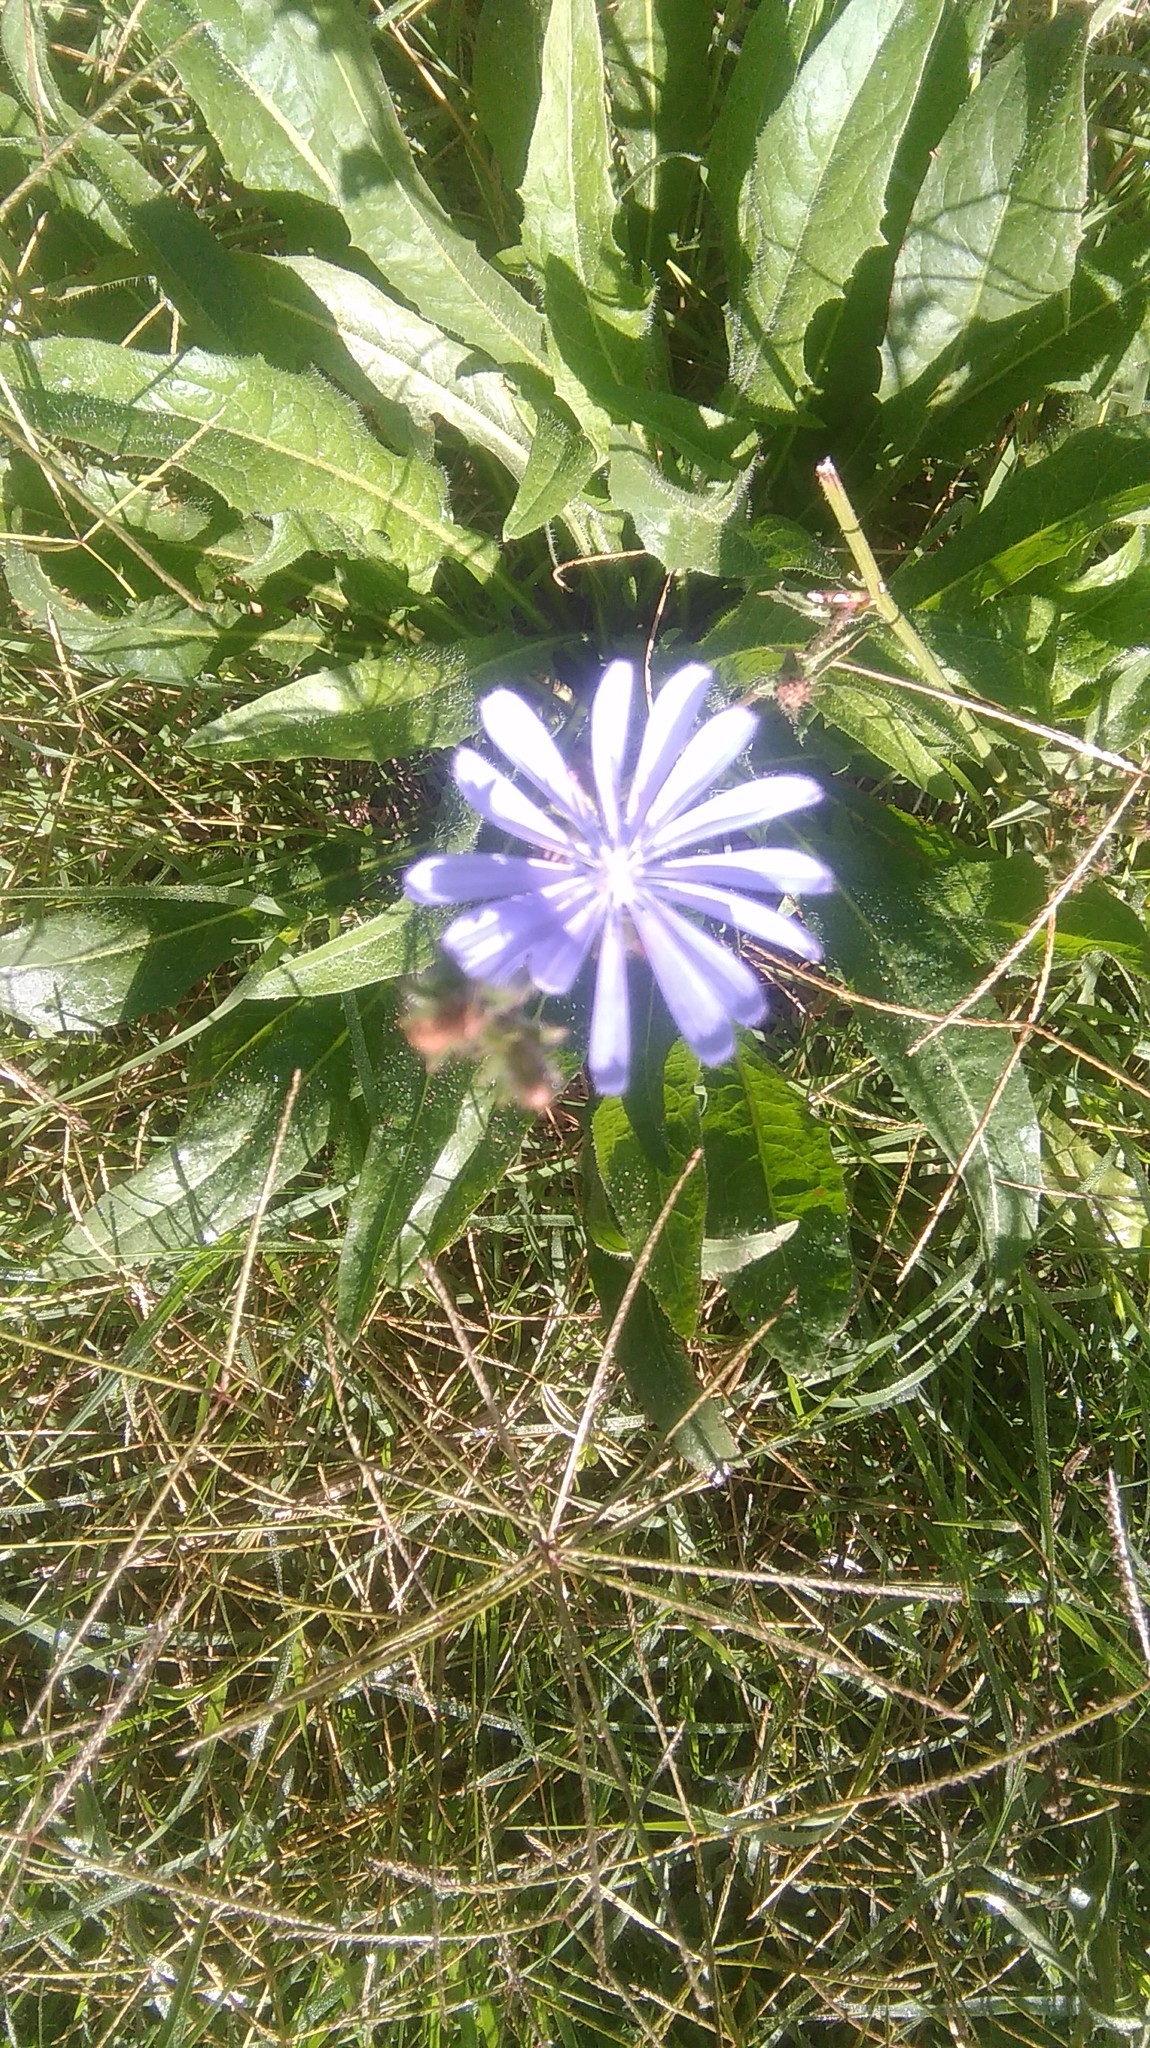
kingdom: Plantae
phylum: Tracheophyta
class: Magnoliopsida
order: Asterales
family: Asteraceae
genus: Cichorium
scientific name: Cichorium intybus
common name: Chicory
